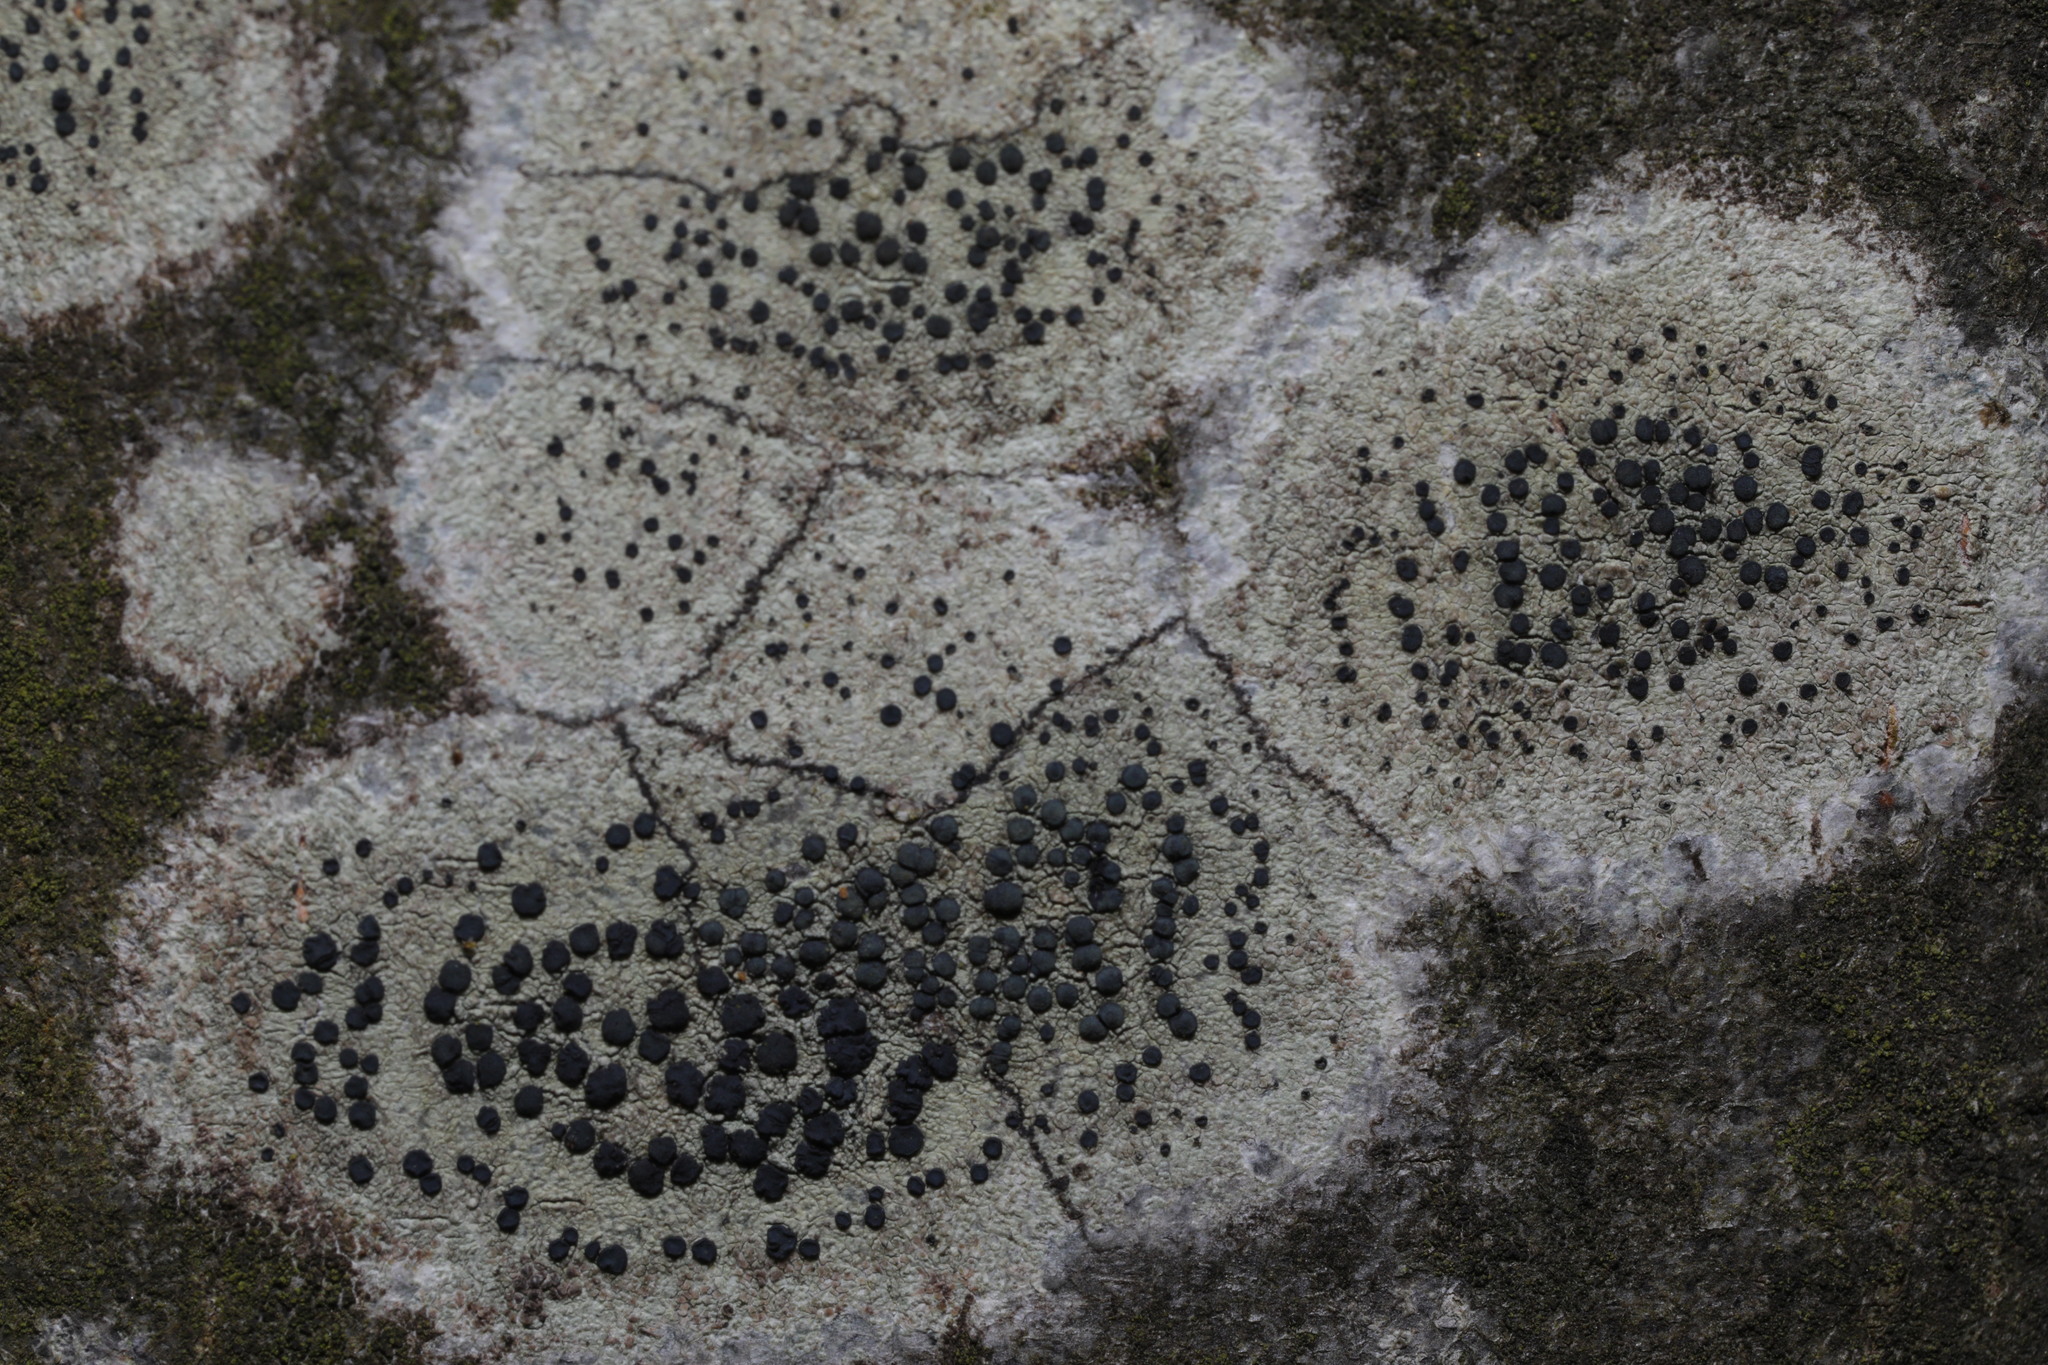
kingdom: Fungi
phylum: Ascomycota
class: Lecanoromycetes
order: Lecanorales
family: Lecanoraceae
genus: Lecidella
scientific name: Lecidella elaeochroma
